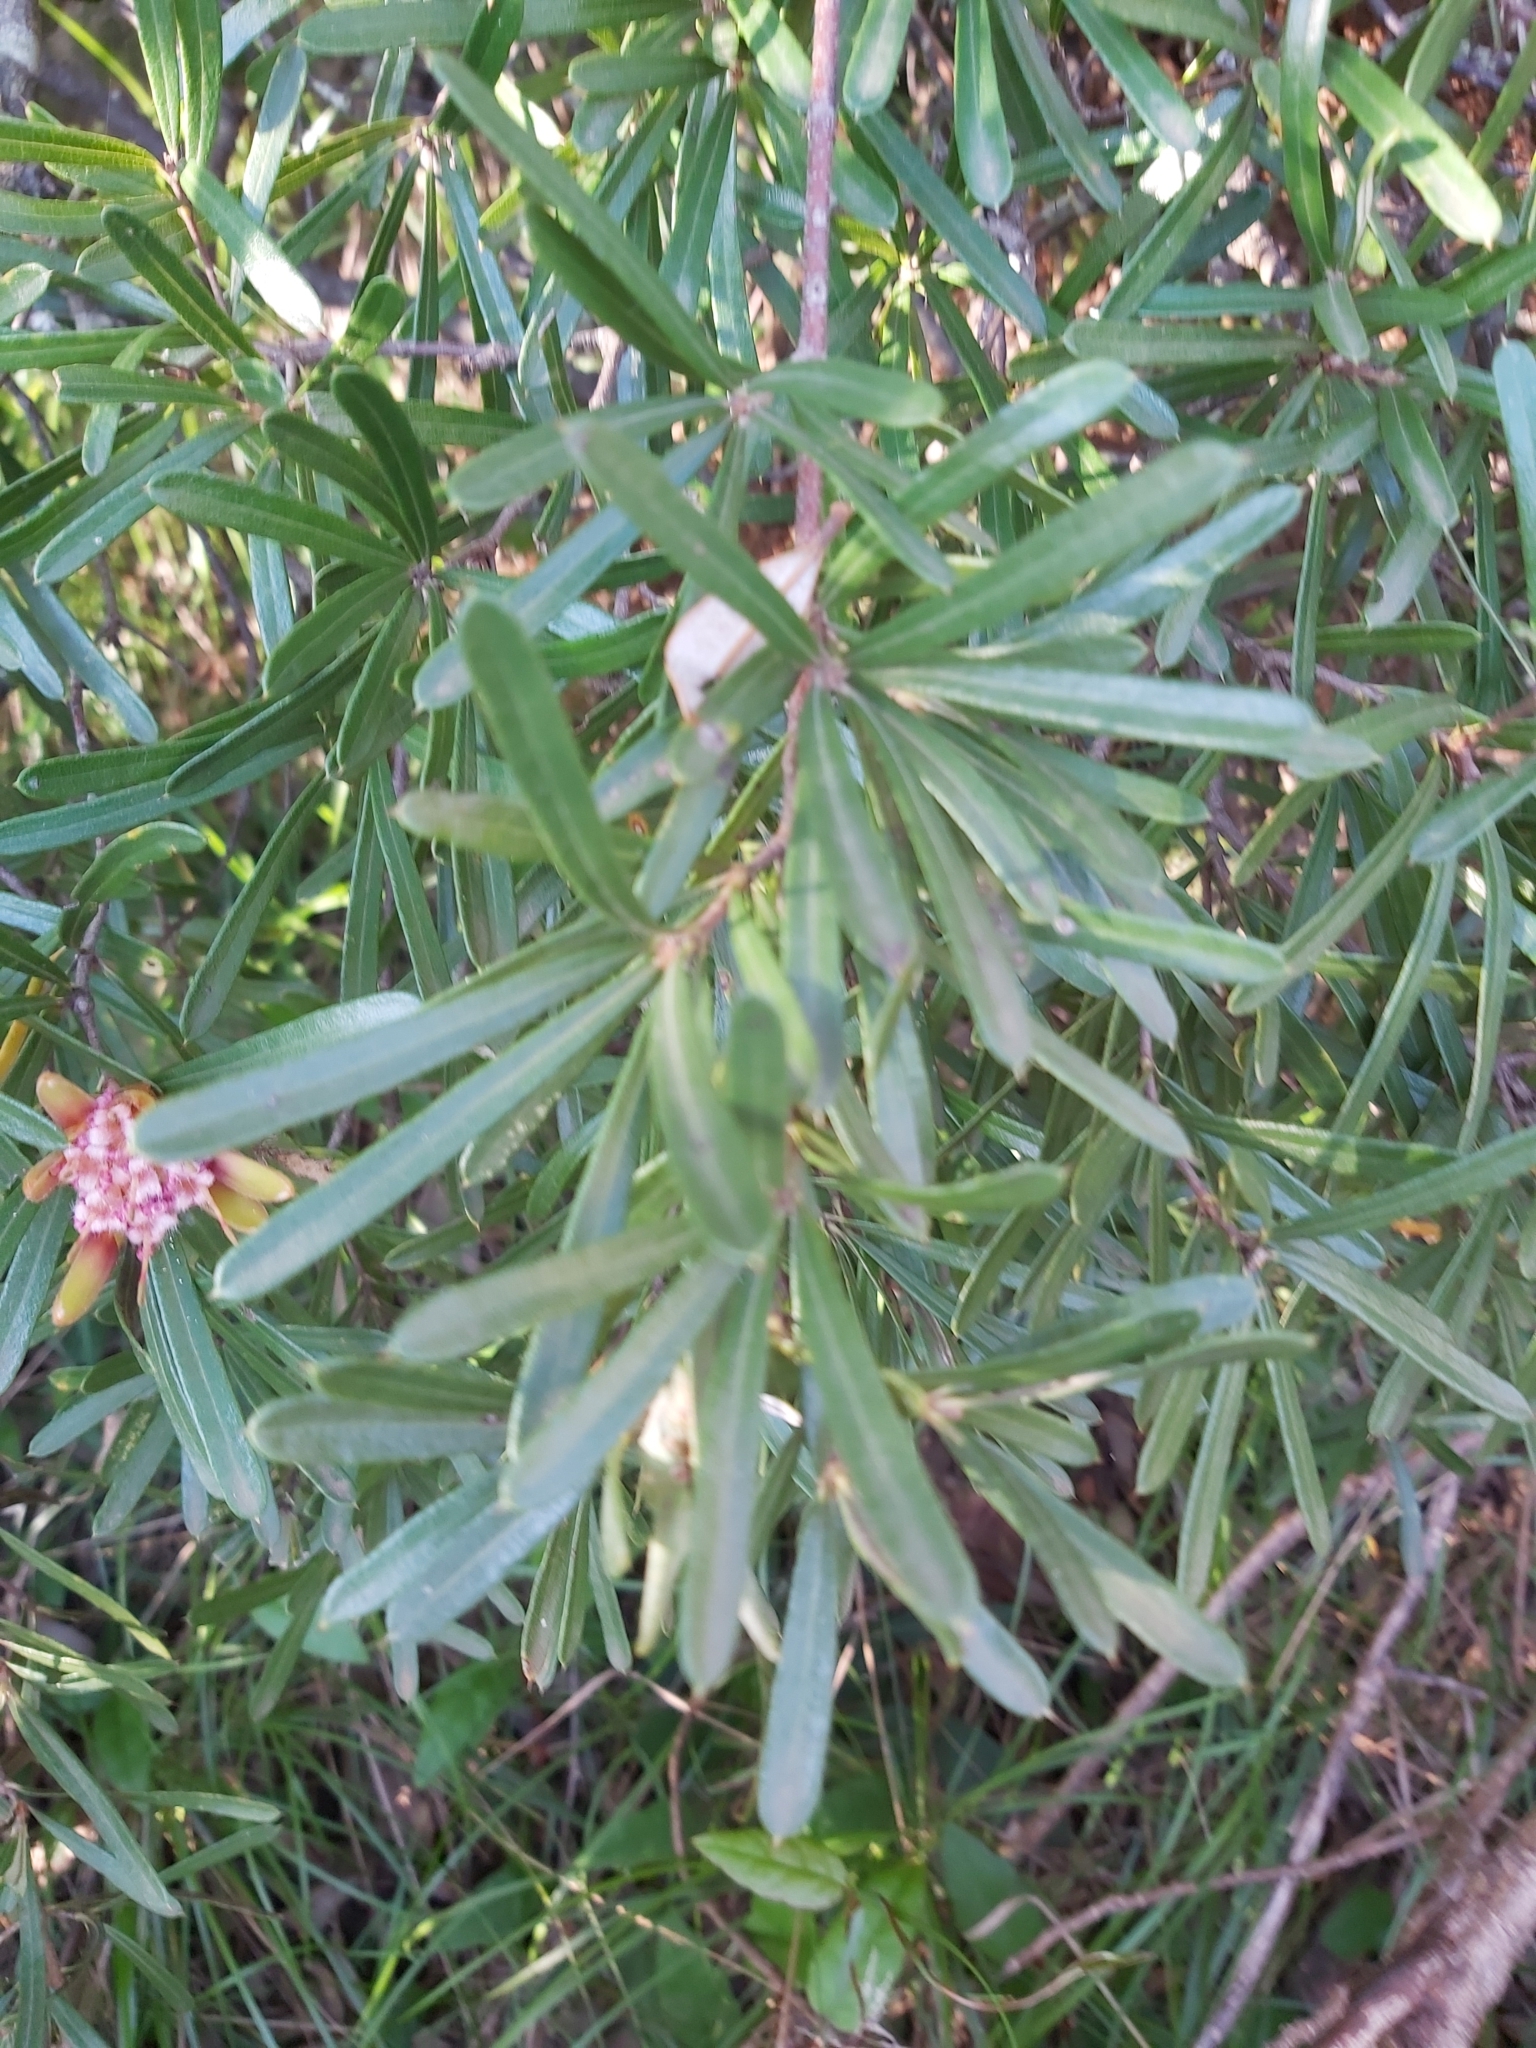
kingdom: Plantae
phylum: Tracheophyta
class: Magnoliopsida
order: Proteales
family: Proteaceae
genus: Lambertia
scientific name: Lambertia formosa
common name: Mountain-devil
